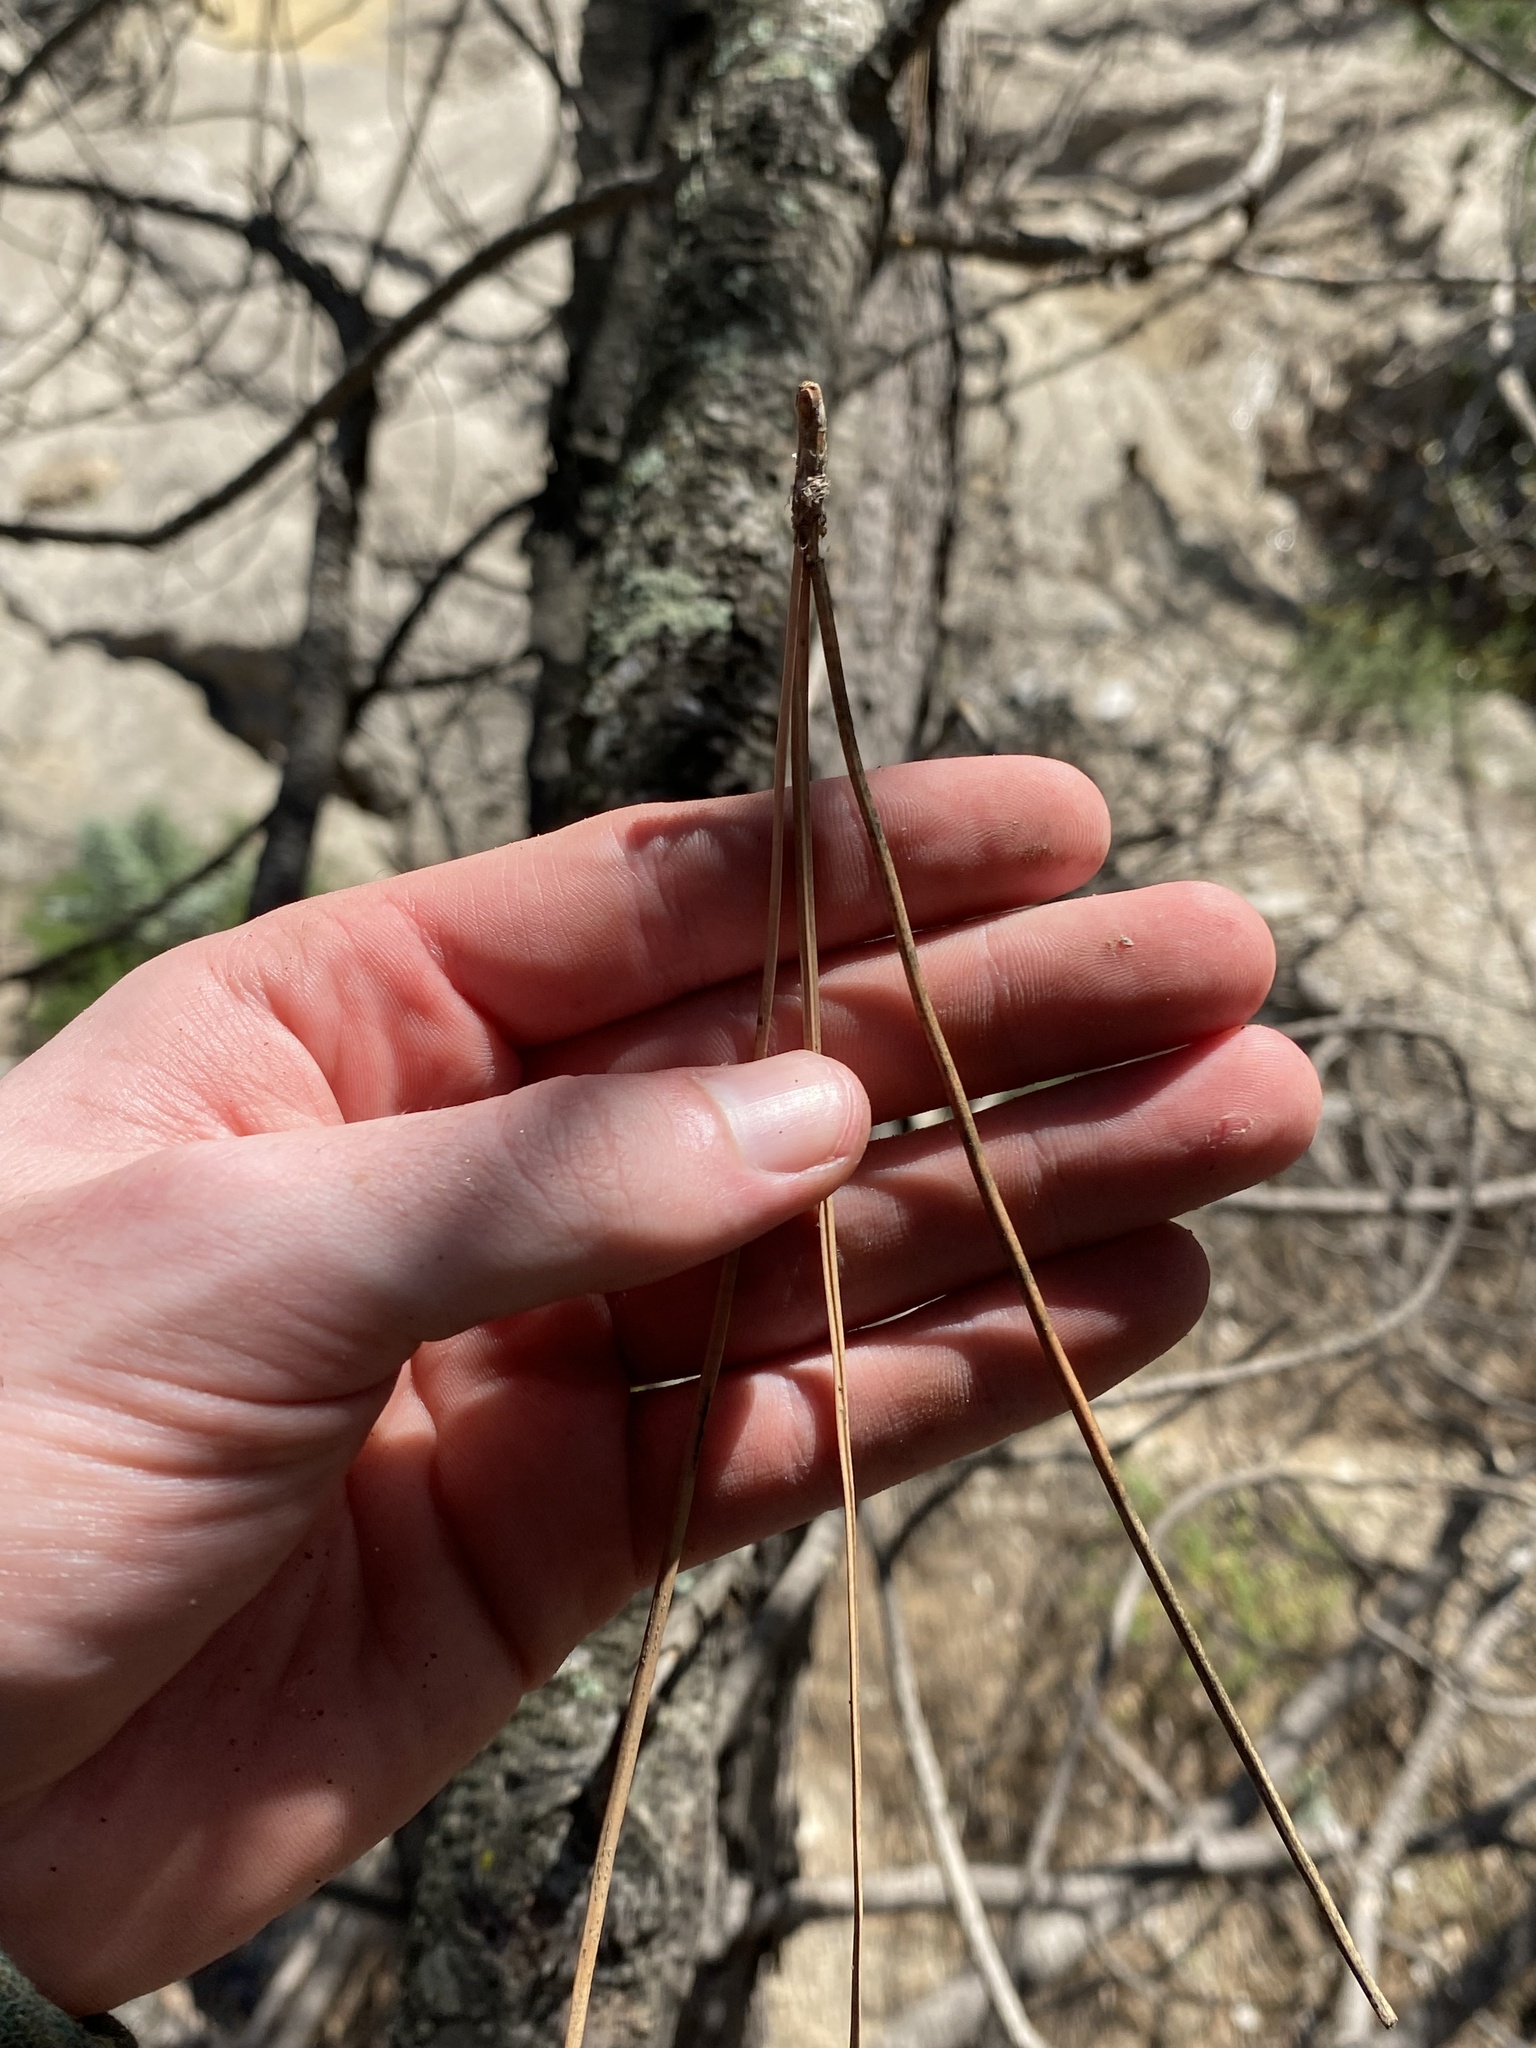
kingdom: Plantae
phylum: Tracheophyta
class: Pinopsida
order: Pinales
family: Pinaceae
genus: Pinus
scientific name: Pinus sabiniana
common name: Bull pine
